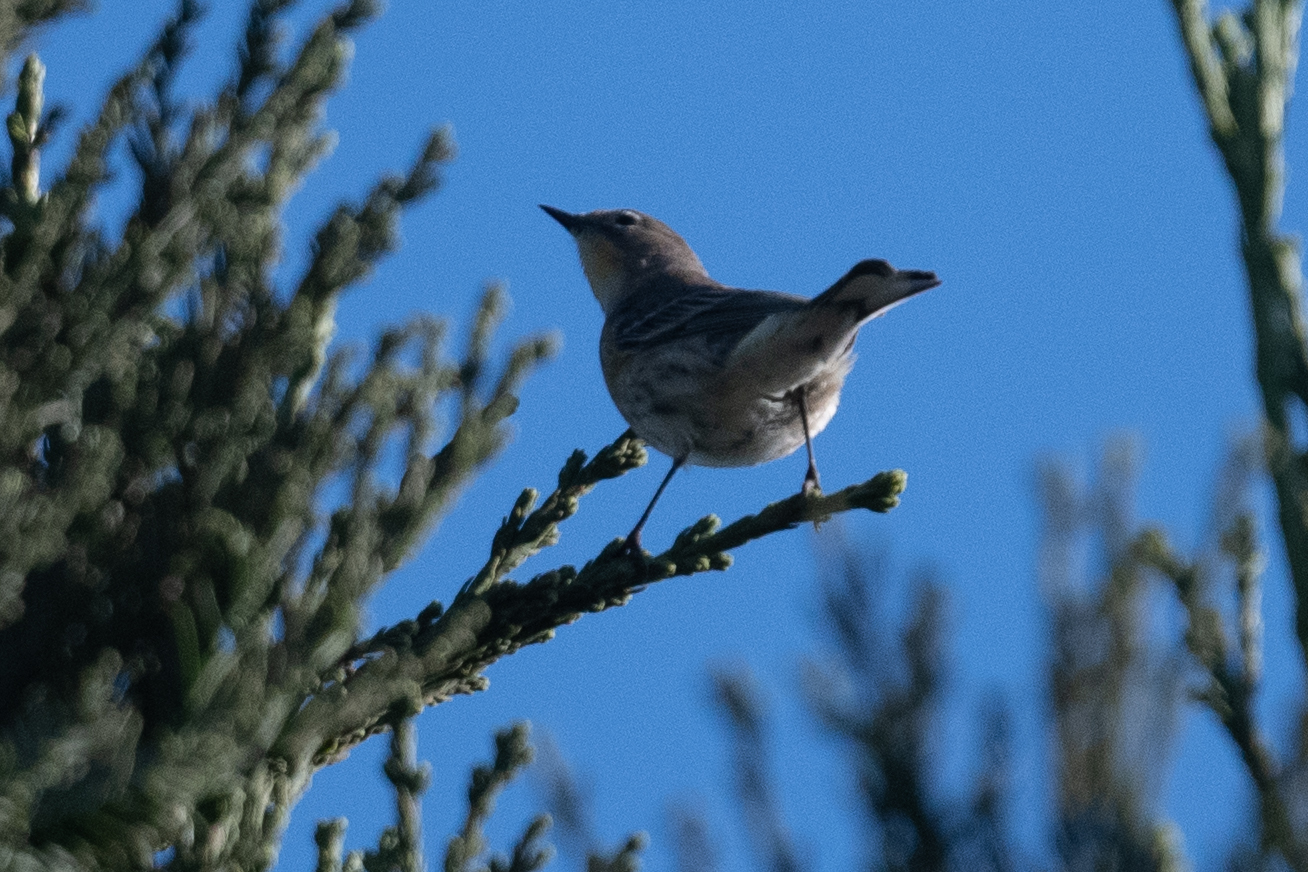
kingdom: Animalia
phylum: Chordata
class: Aves
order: Passeriformes
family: Parulidae
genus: Setophaga
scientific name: Setophaga coronata
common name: Myrtle warbler
